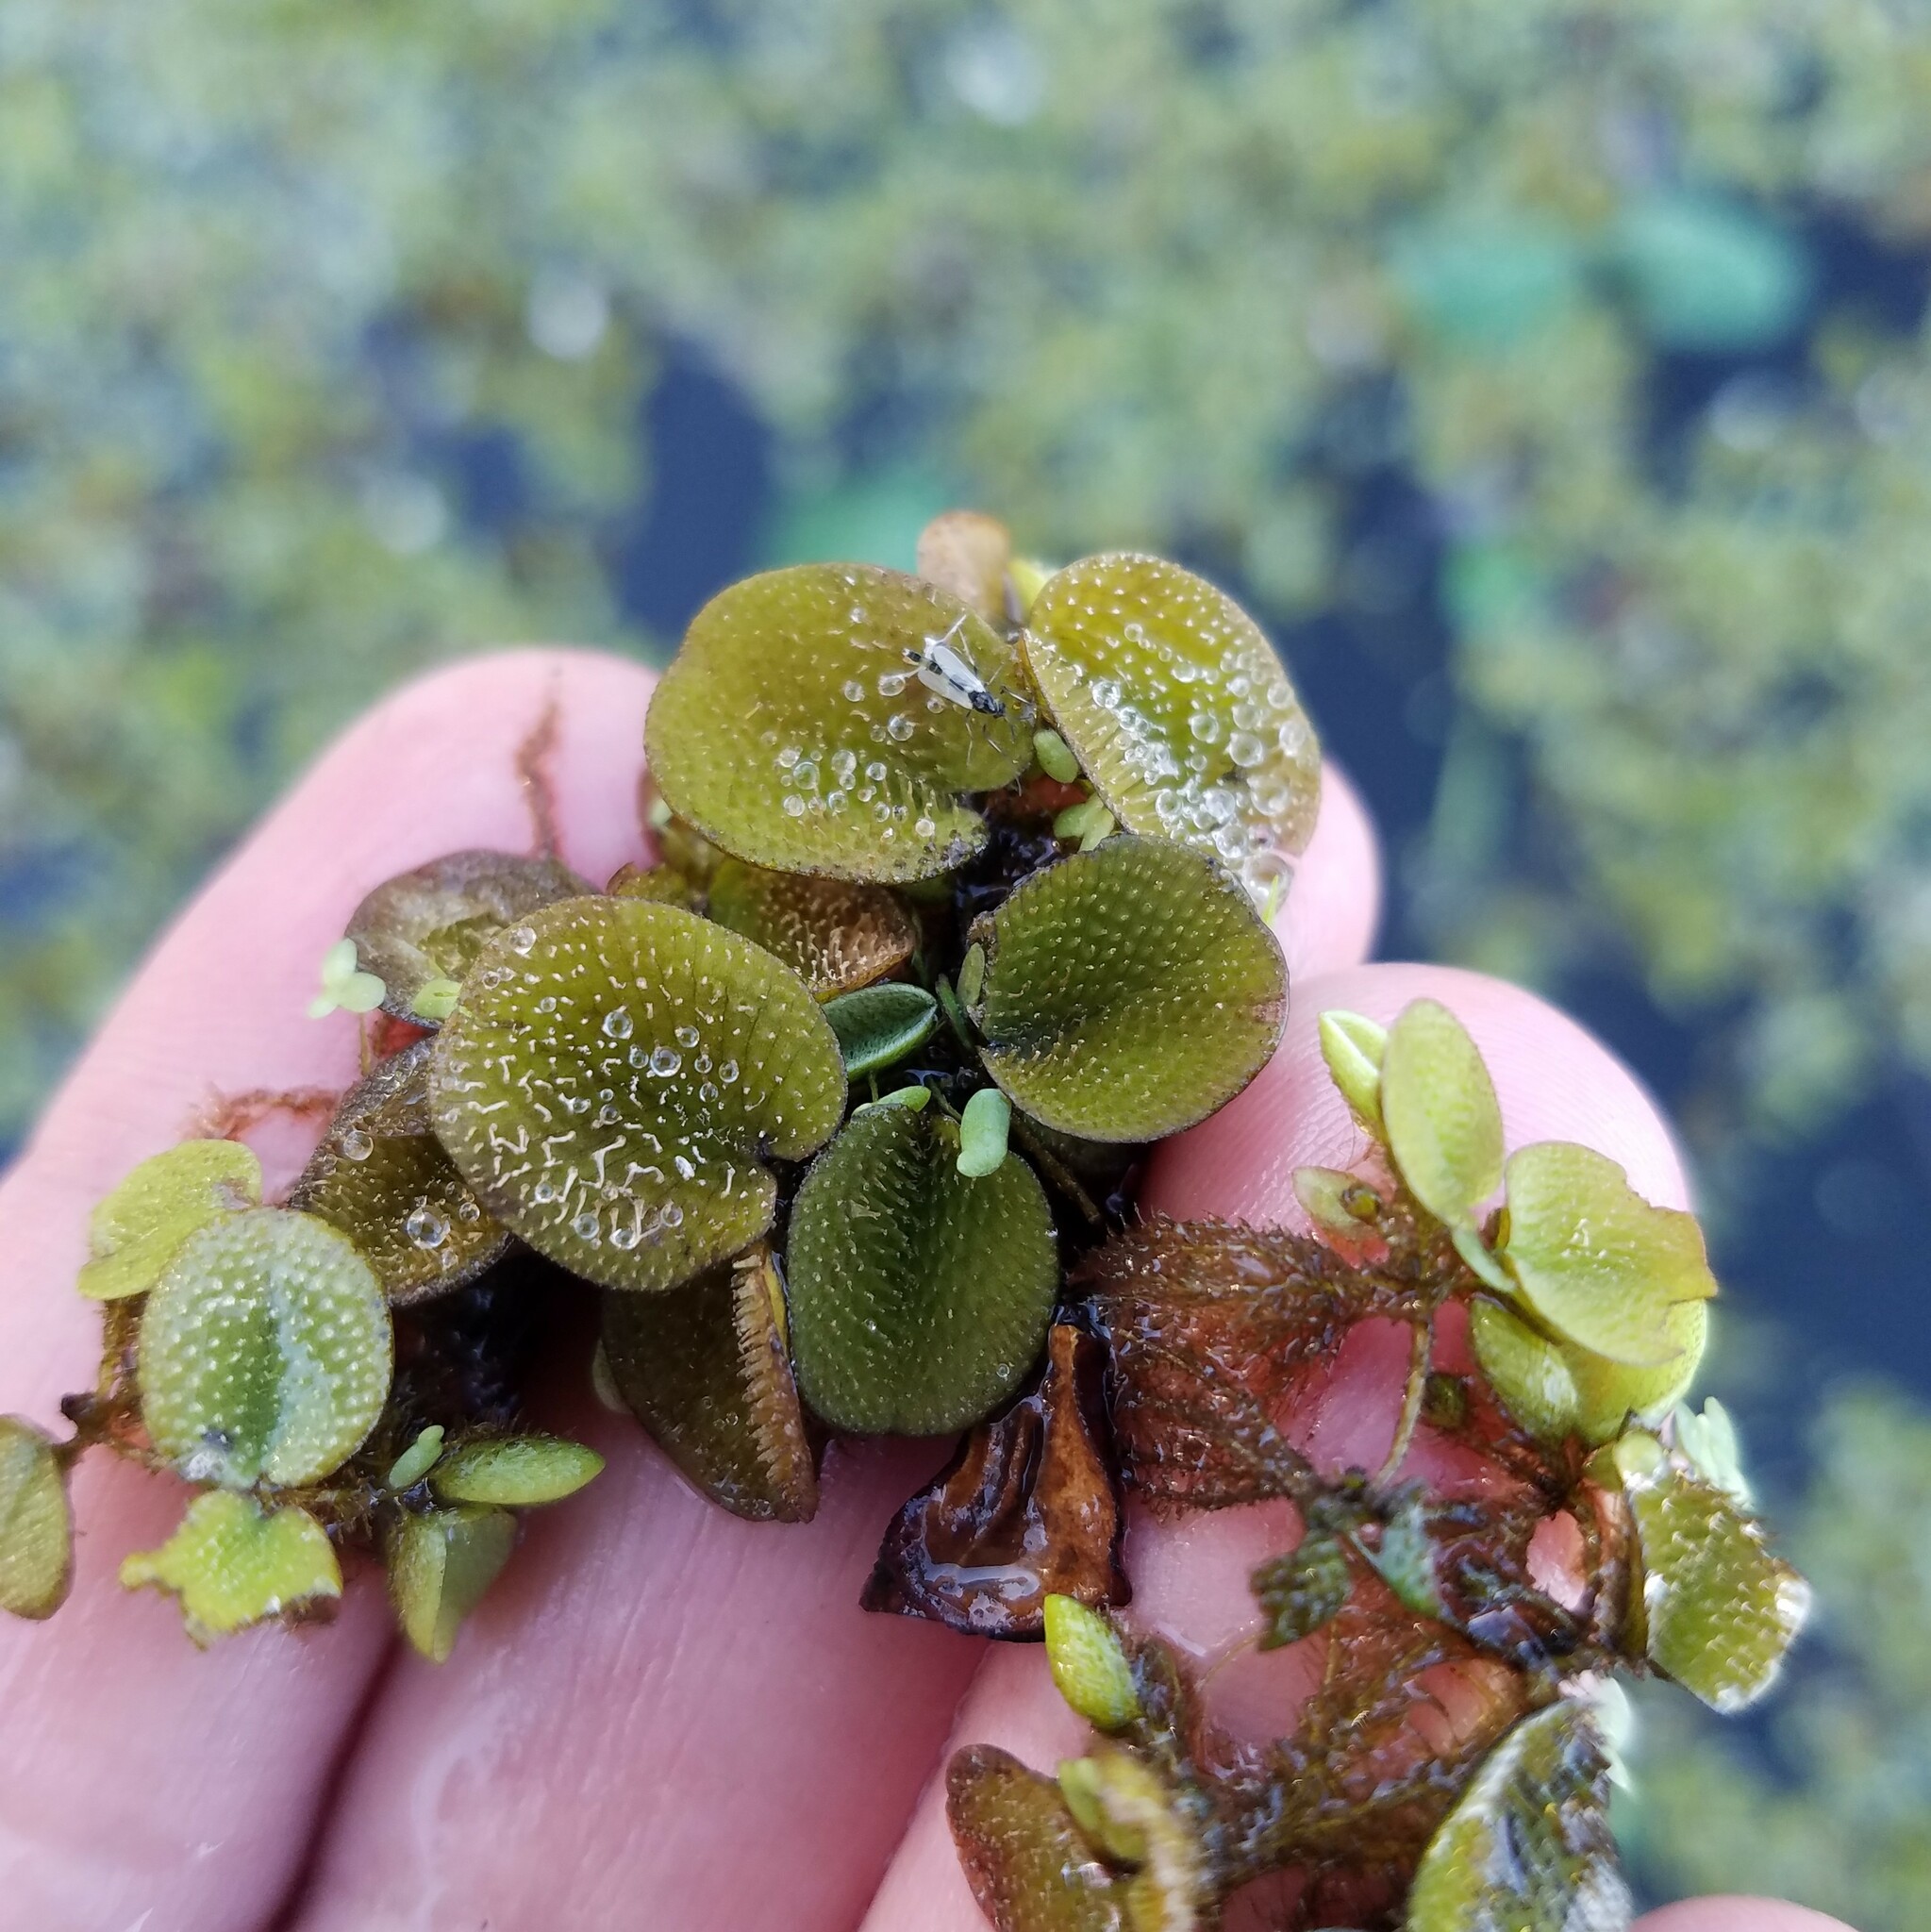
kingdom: Plantae
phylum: Tracheophyta
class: Polypodiopsida
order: Salviniales
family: Salviniaceae
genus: Salvinia
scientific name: Salvinia minima
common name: Water spangles
